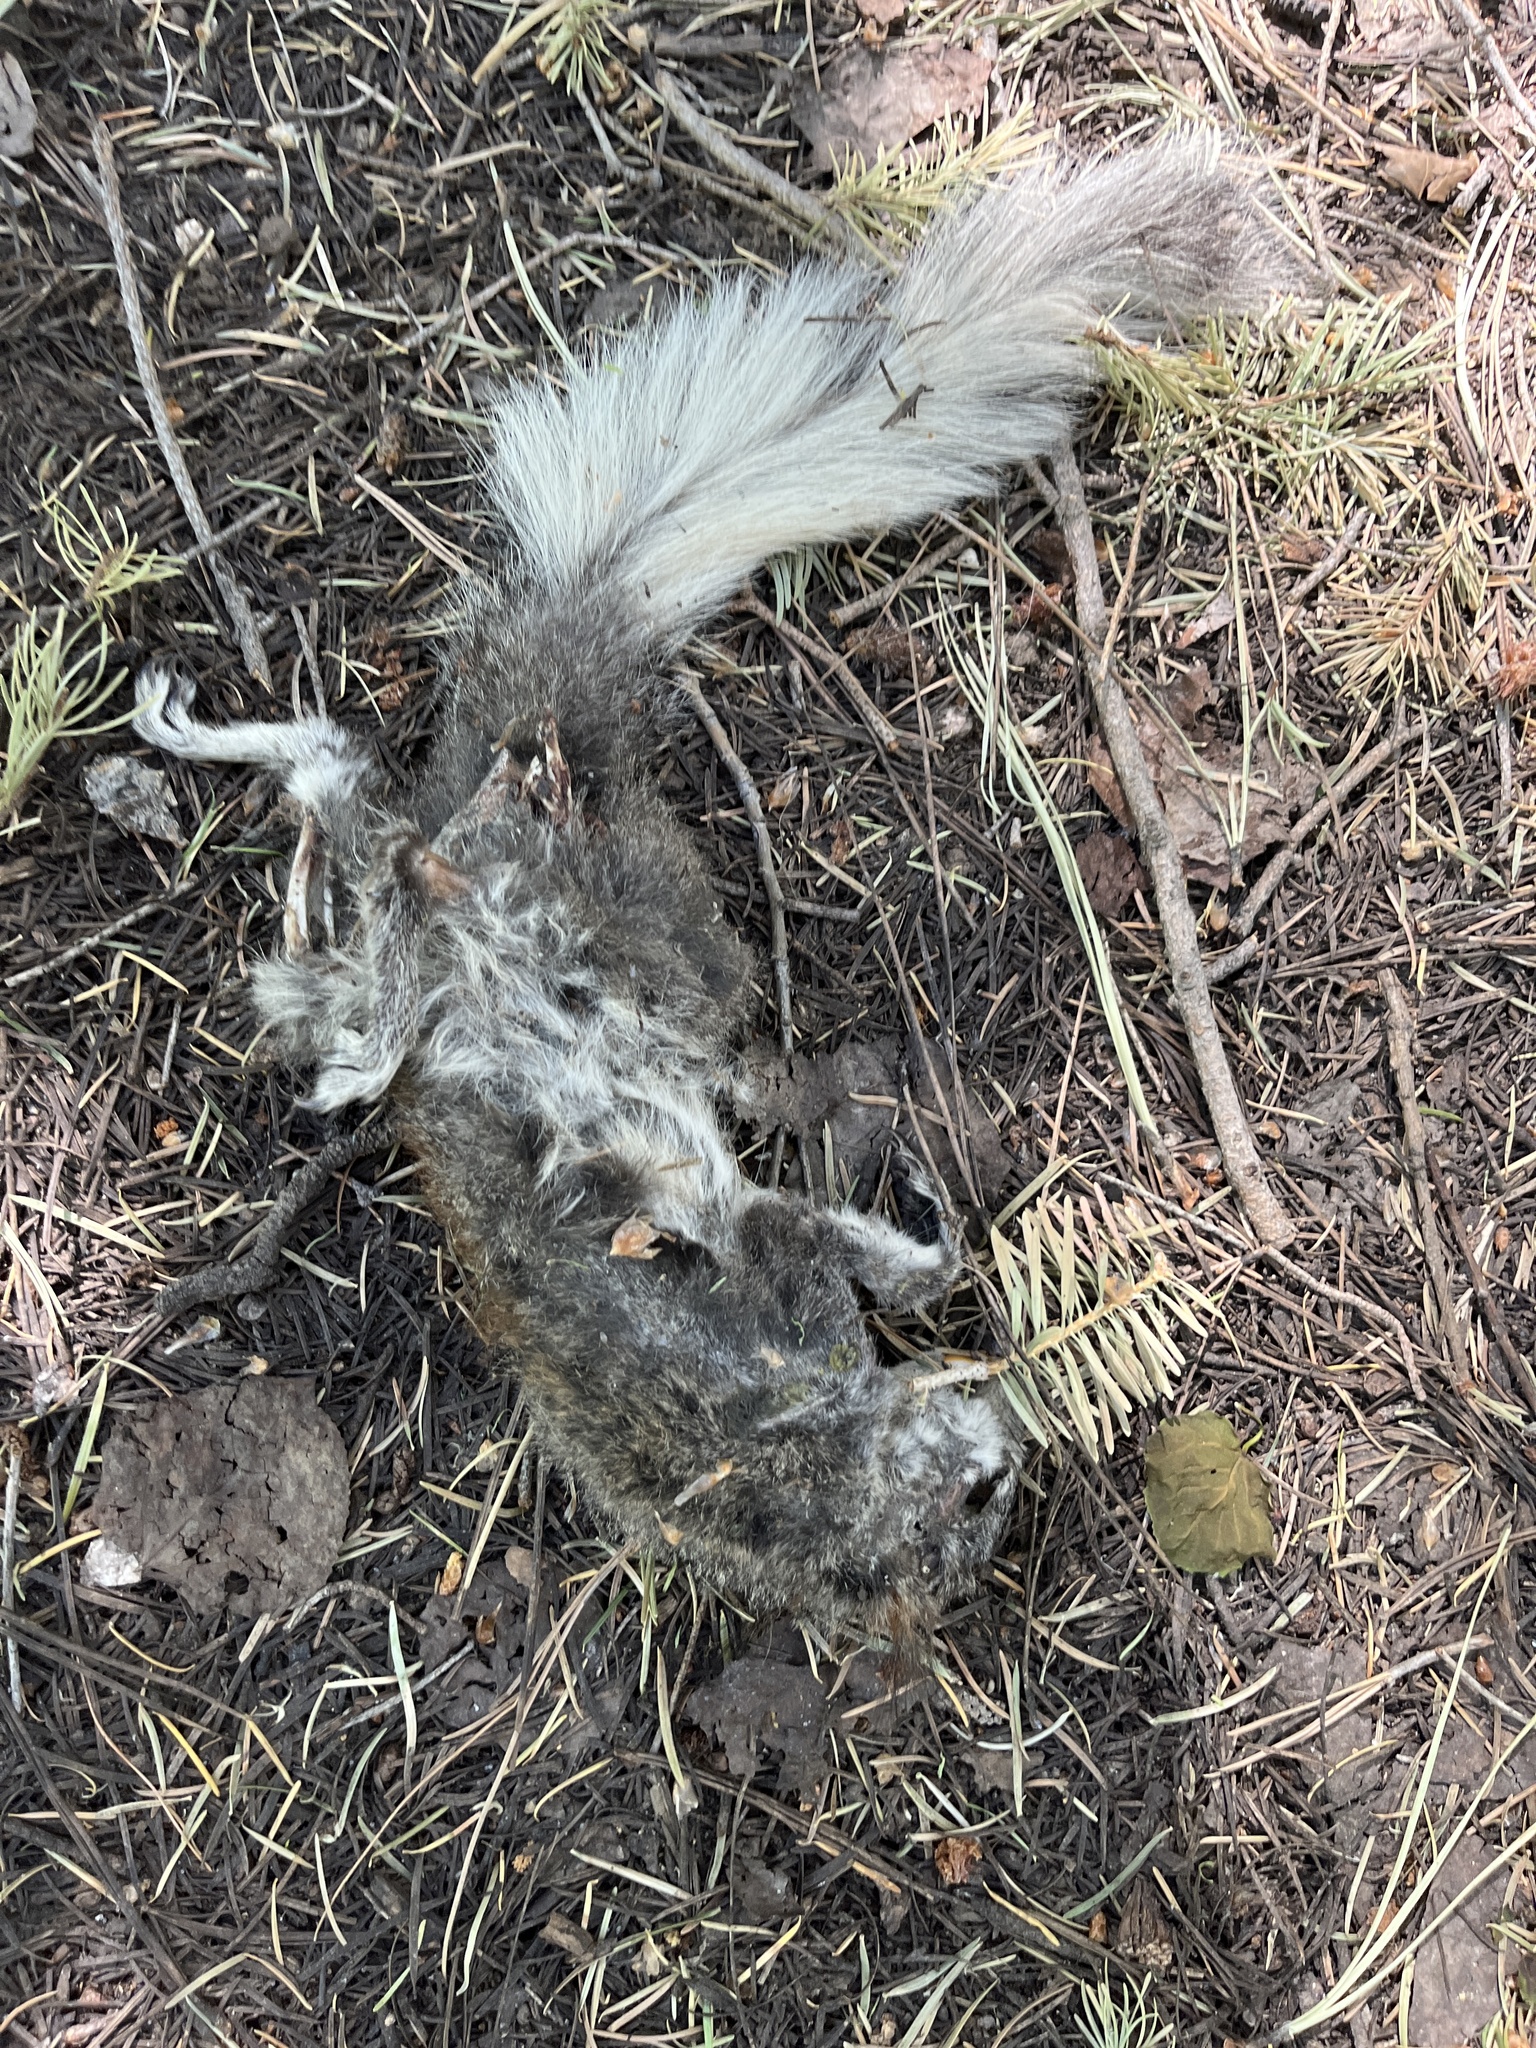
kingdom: Animalia
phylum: Chordata
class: Mammalia
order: Rodentia
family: Sciuridae
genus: Sciurus
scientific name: Sciurus aberti
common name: Abert's squirrel
